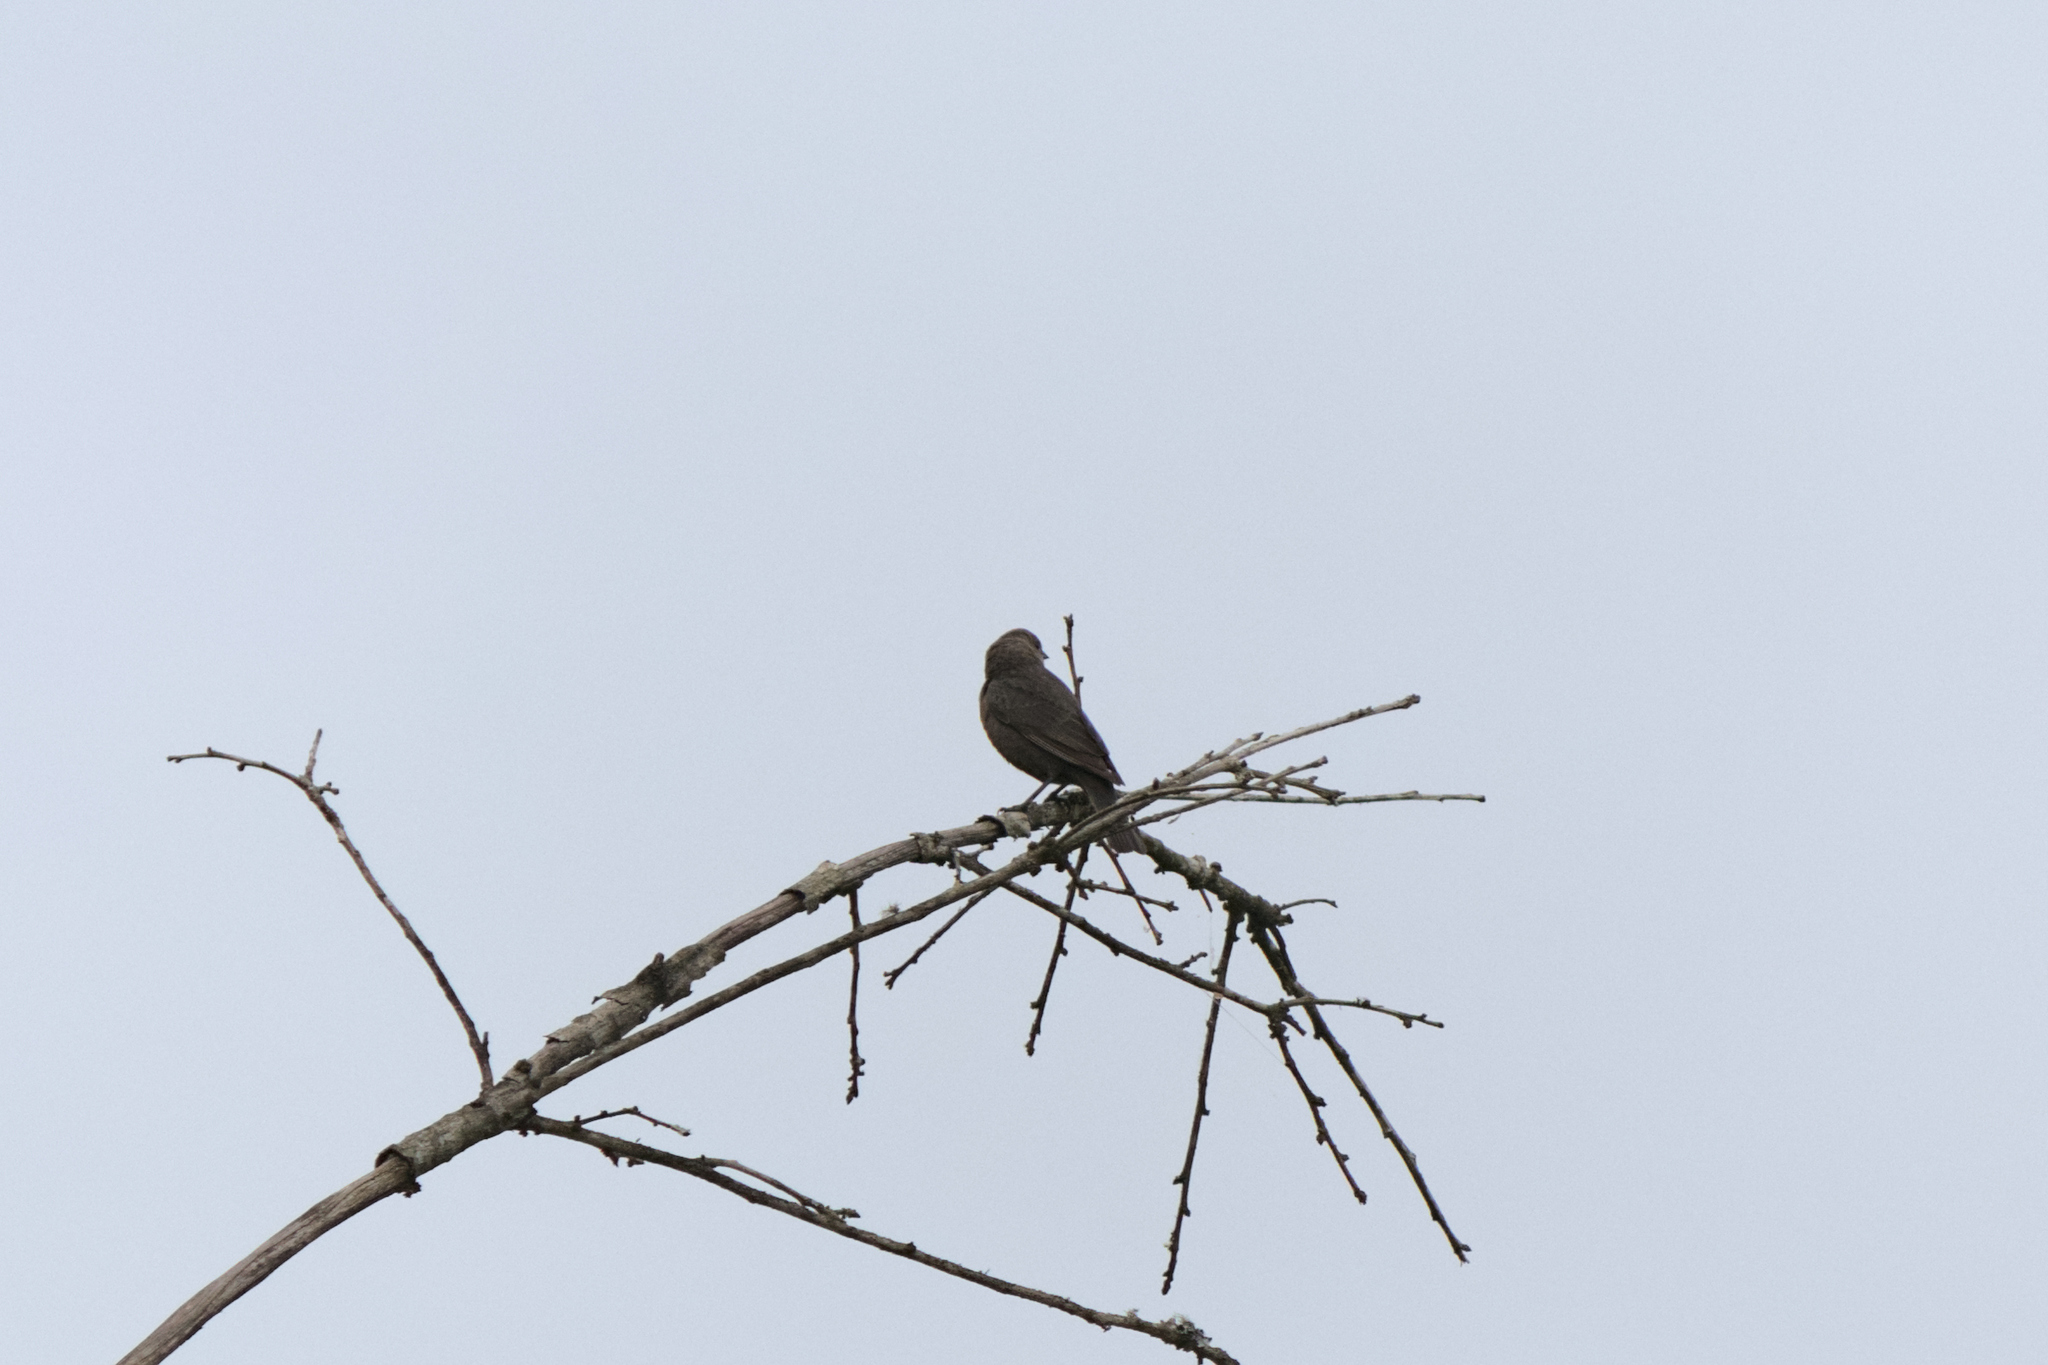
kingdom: Animalia
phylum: Chordata
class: Aves
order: Passeriformes
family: Icteridae
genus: Molothrus
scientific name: Molothrus ater
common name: Brown-headed cowbird
